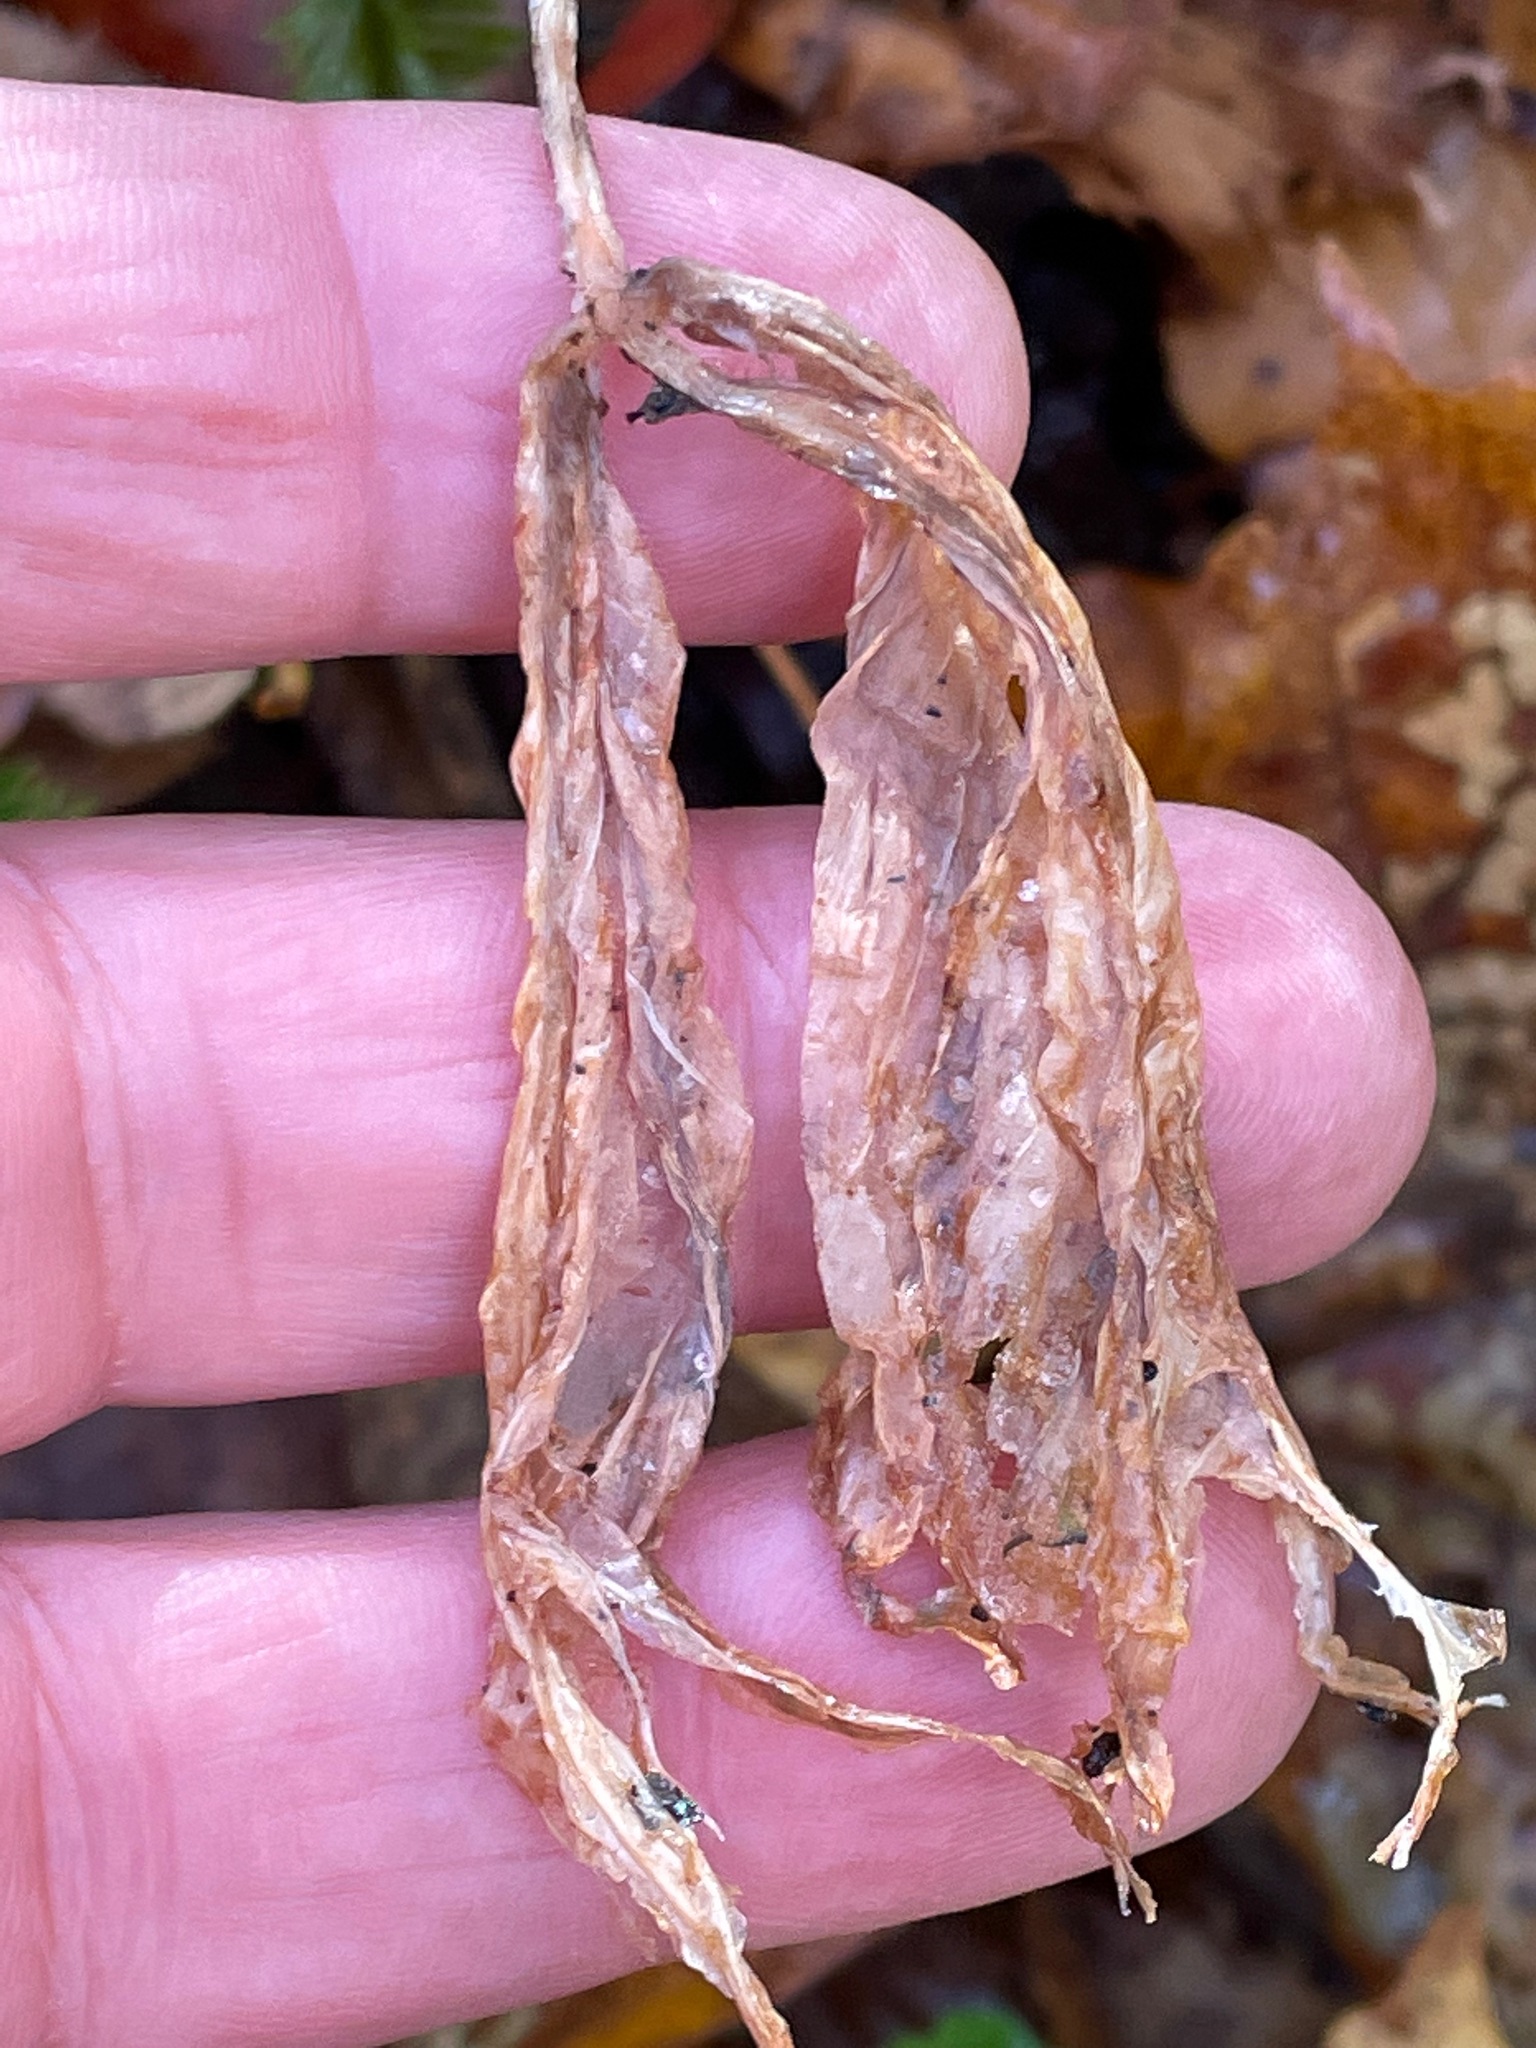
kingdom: Plantae
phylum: Tracheophyta
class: Liliopsida
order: Alismatales
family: Araceae
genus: Arisaema
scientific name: Arisaema triphyllum
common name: Jack-in-the-pulpit
